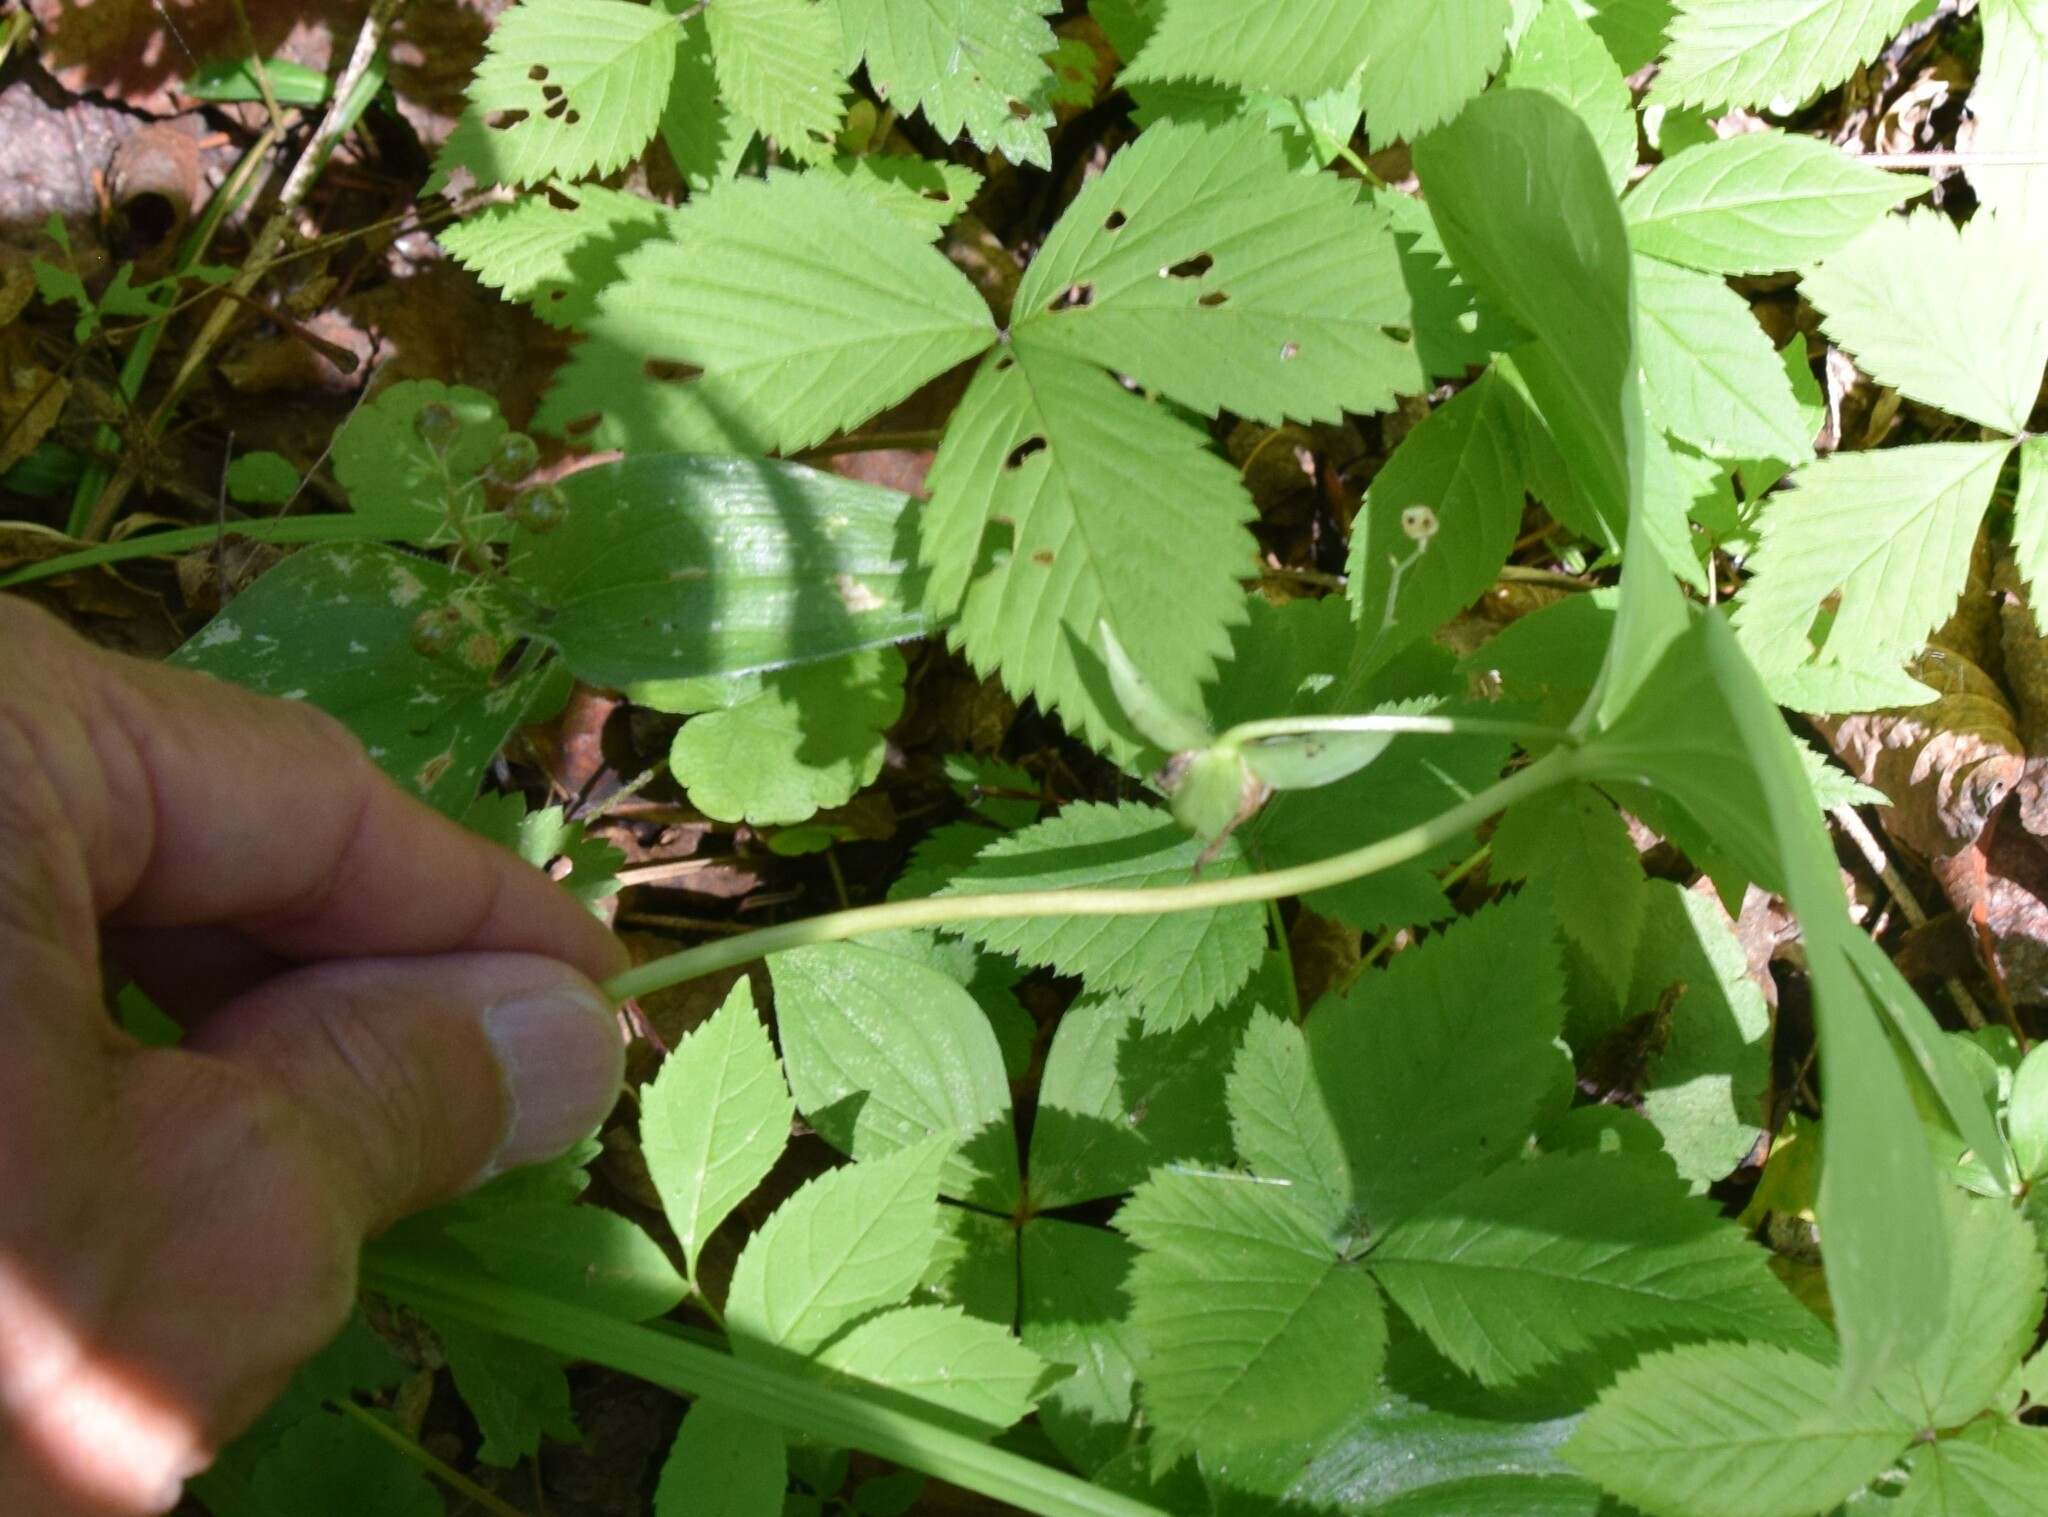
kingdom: Plantae
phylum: Tracheophyta
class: Liliopsida
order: Liliales
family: Melanthiaceae
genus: Trillium
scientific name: Trillium cernuum
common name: Nodding trillium
